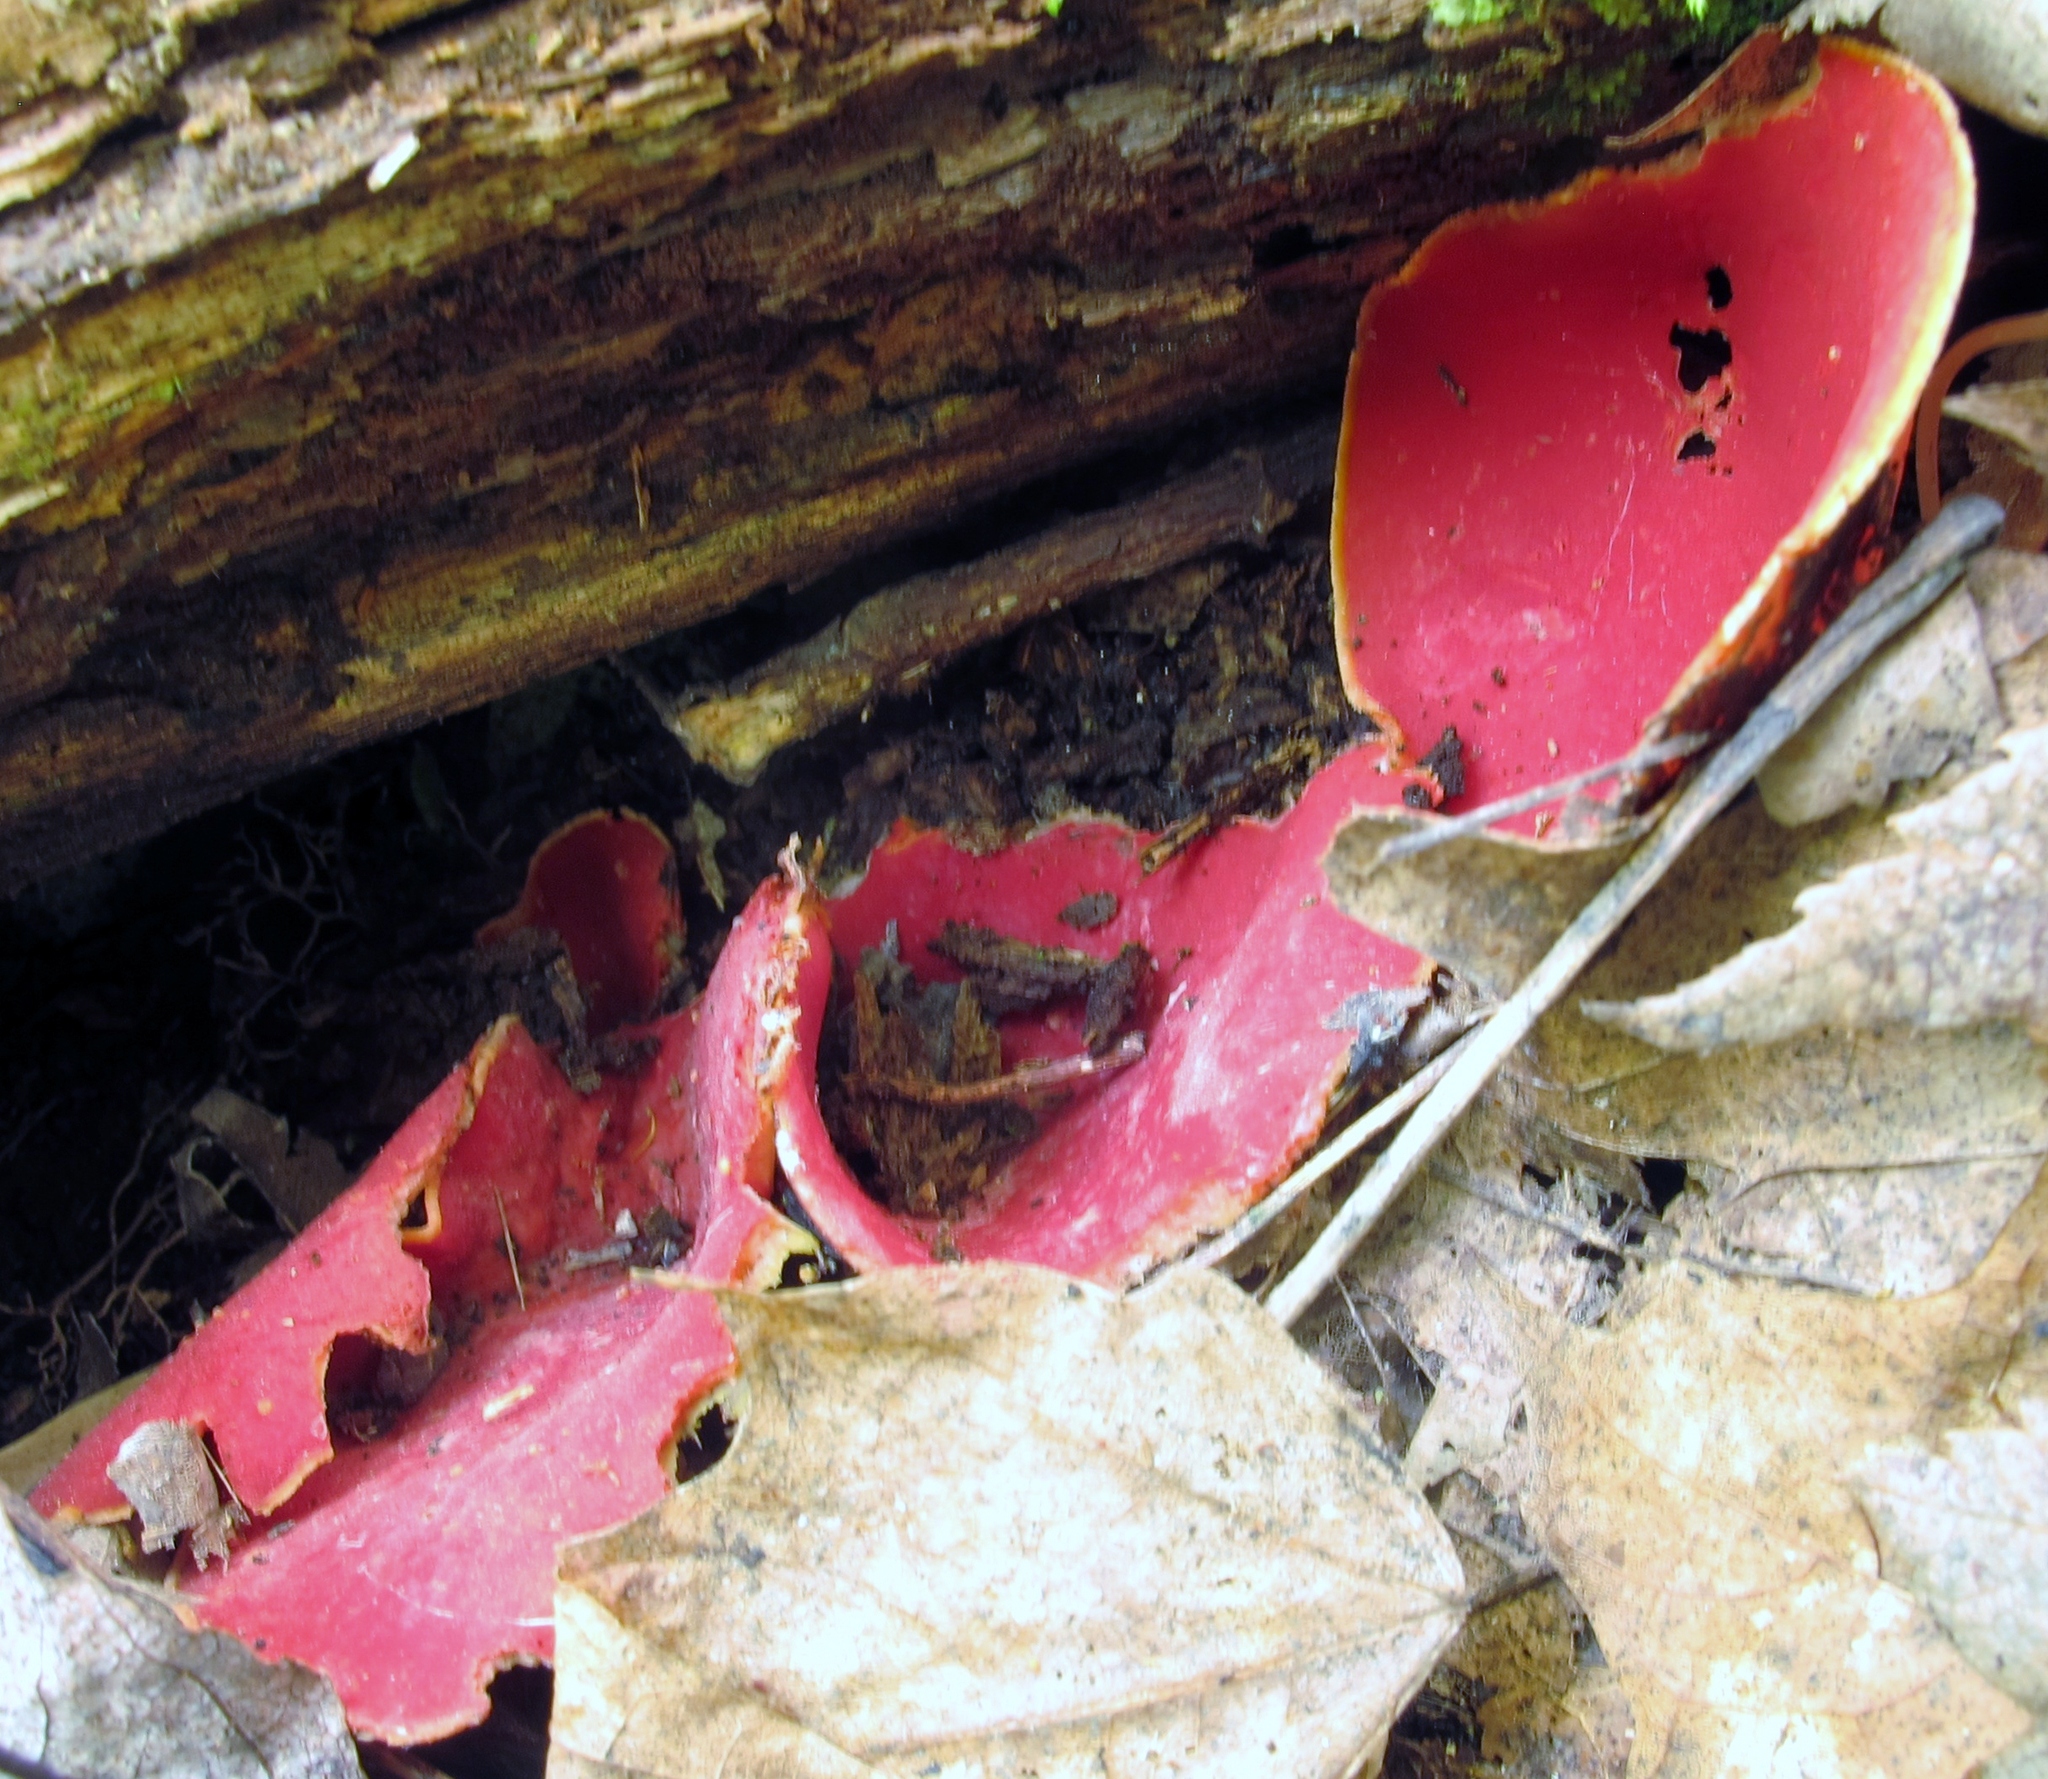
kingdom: Fungi
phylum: Ascomycota
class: Pezizomycetes
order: Pezizales
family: Sarcoscyphaceae
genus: Sarcoscypha
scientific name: Sarcoscypha austriaca
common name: Scarlet elfcup
